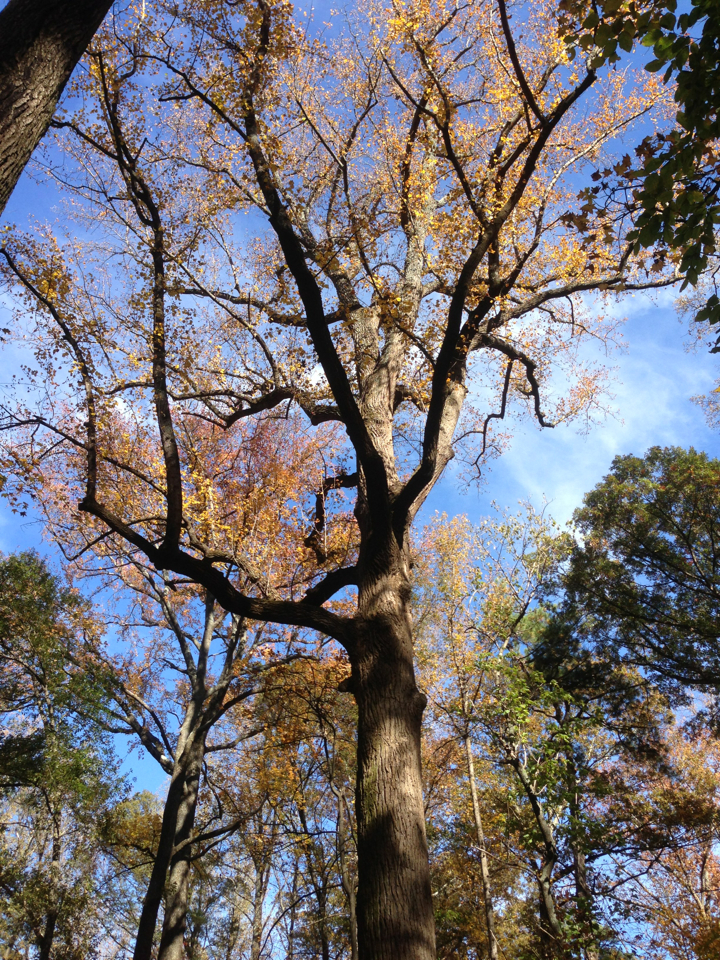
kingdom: Plantae
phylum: Tracheophyta
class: Magnoliopsida
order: Magnoliales
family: Magnoliaceae
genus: Liriodendron
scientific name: Liriodendron tulipifera
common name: Tulip tree
